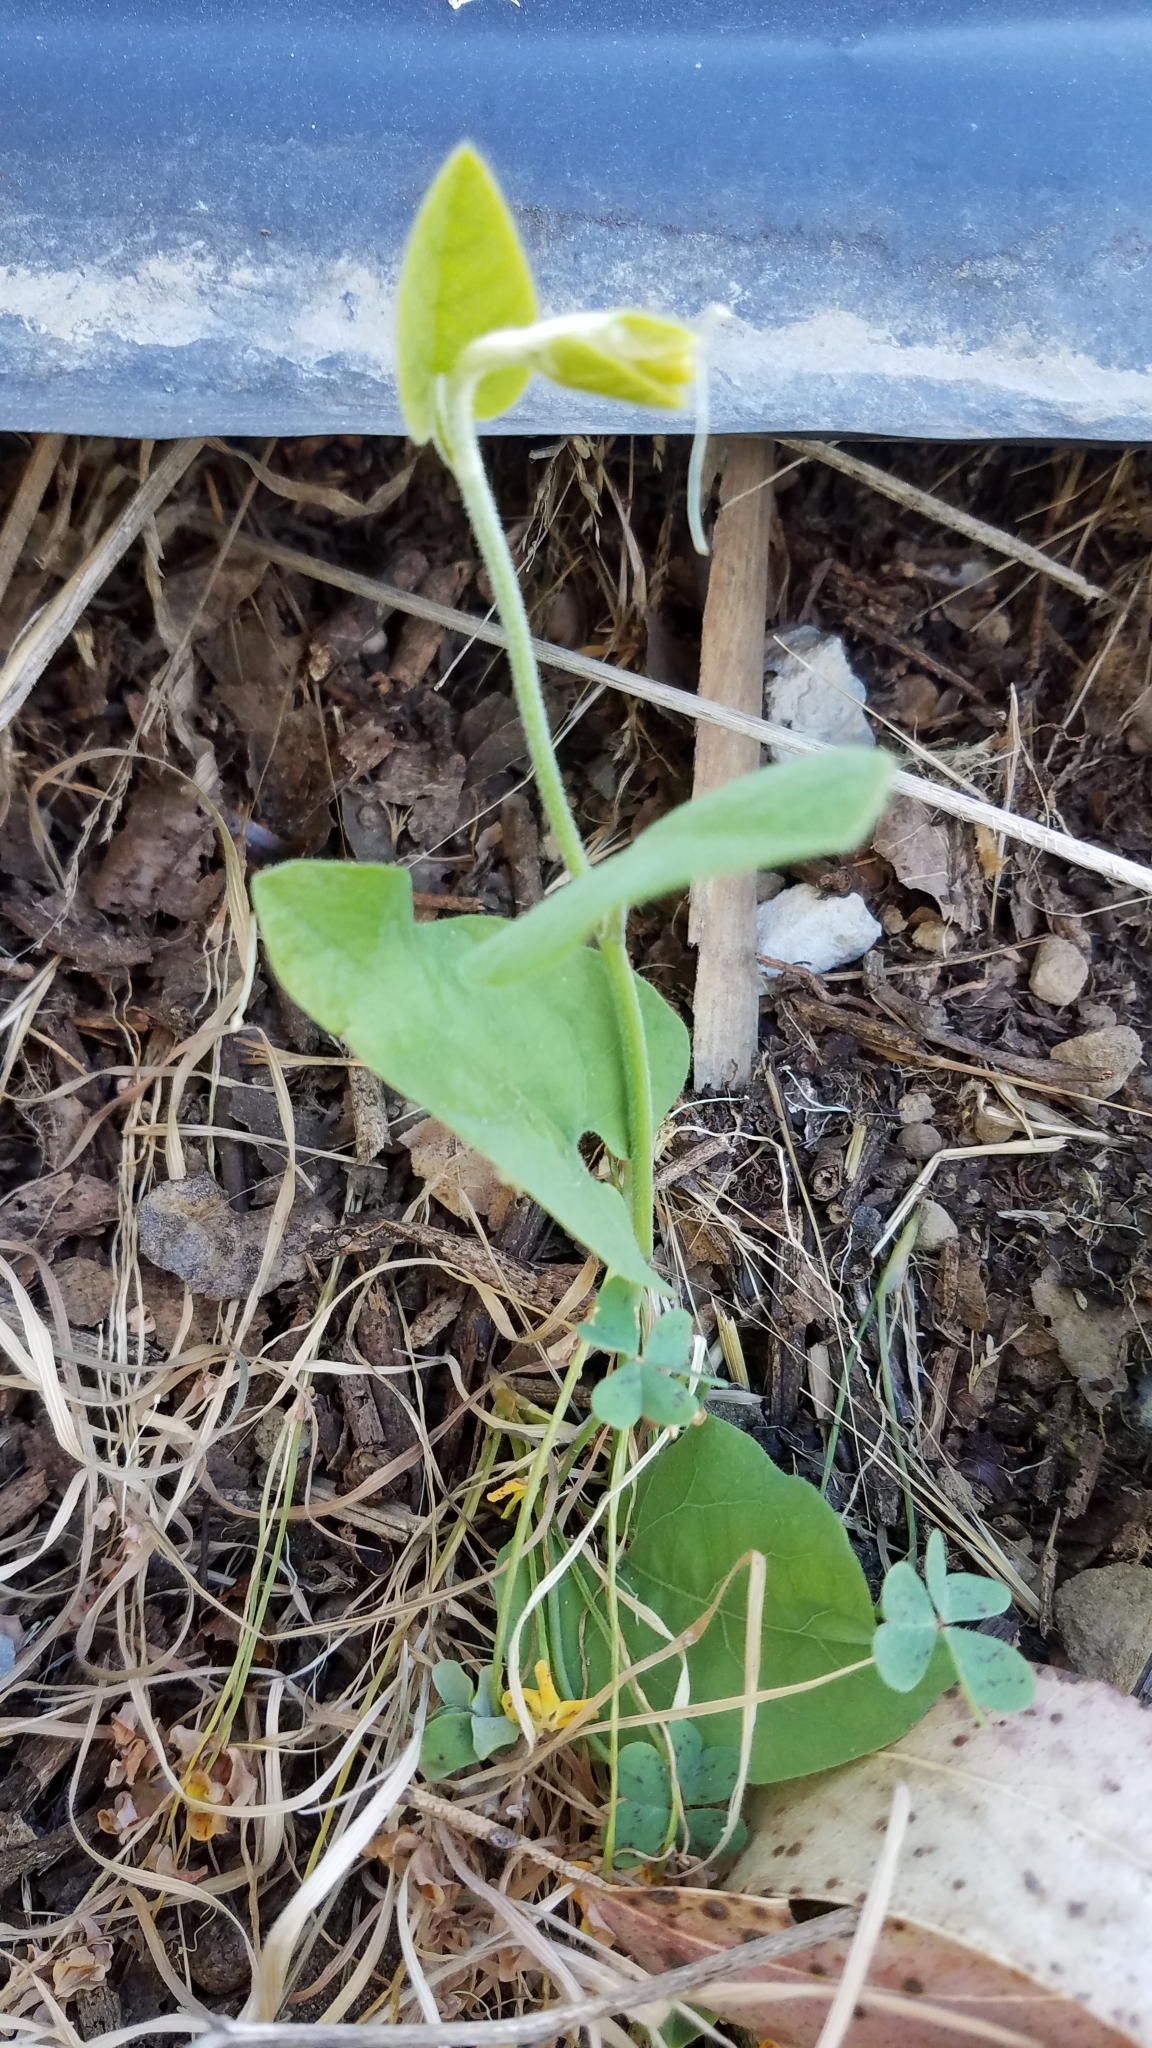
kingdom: Plantae
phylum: Tracheophyta
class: Magnoliopsida
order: Piperales
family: Aristolochiaceae
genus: Isotrema
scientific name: Isotrema californicum
